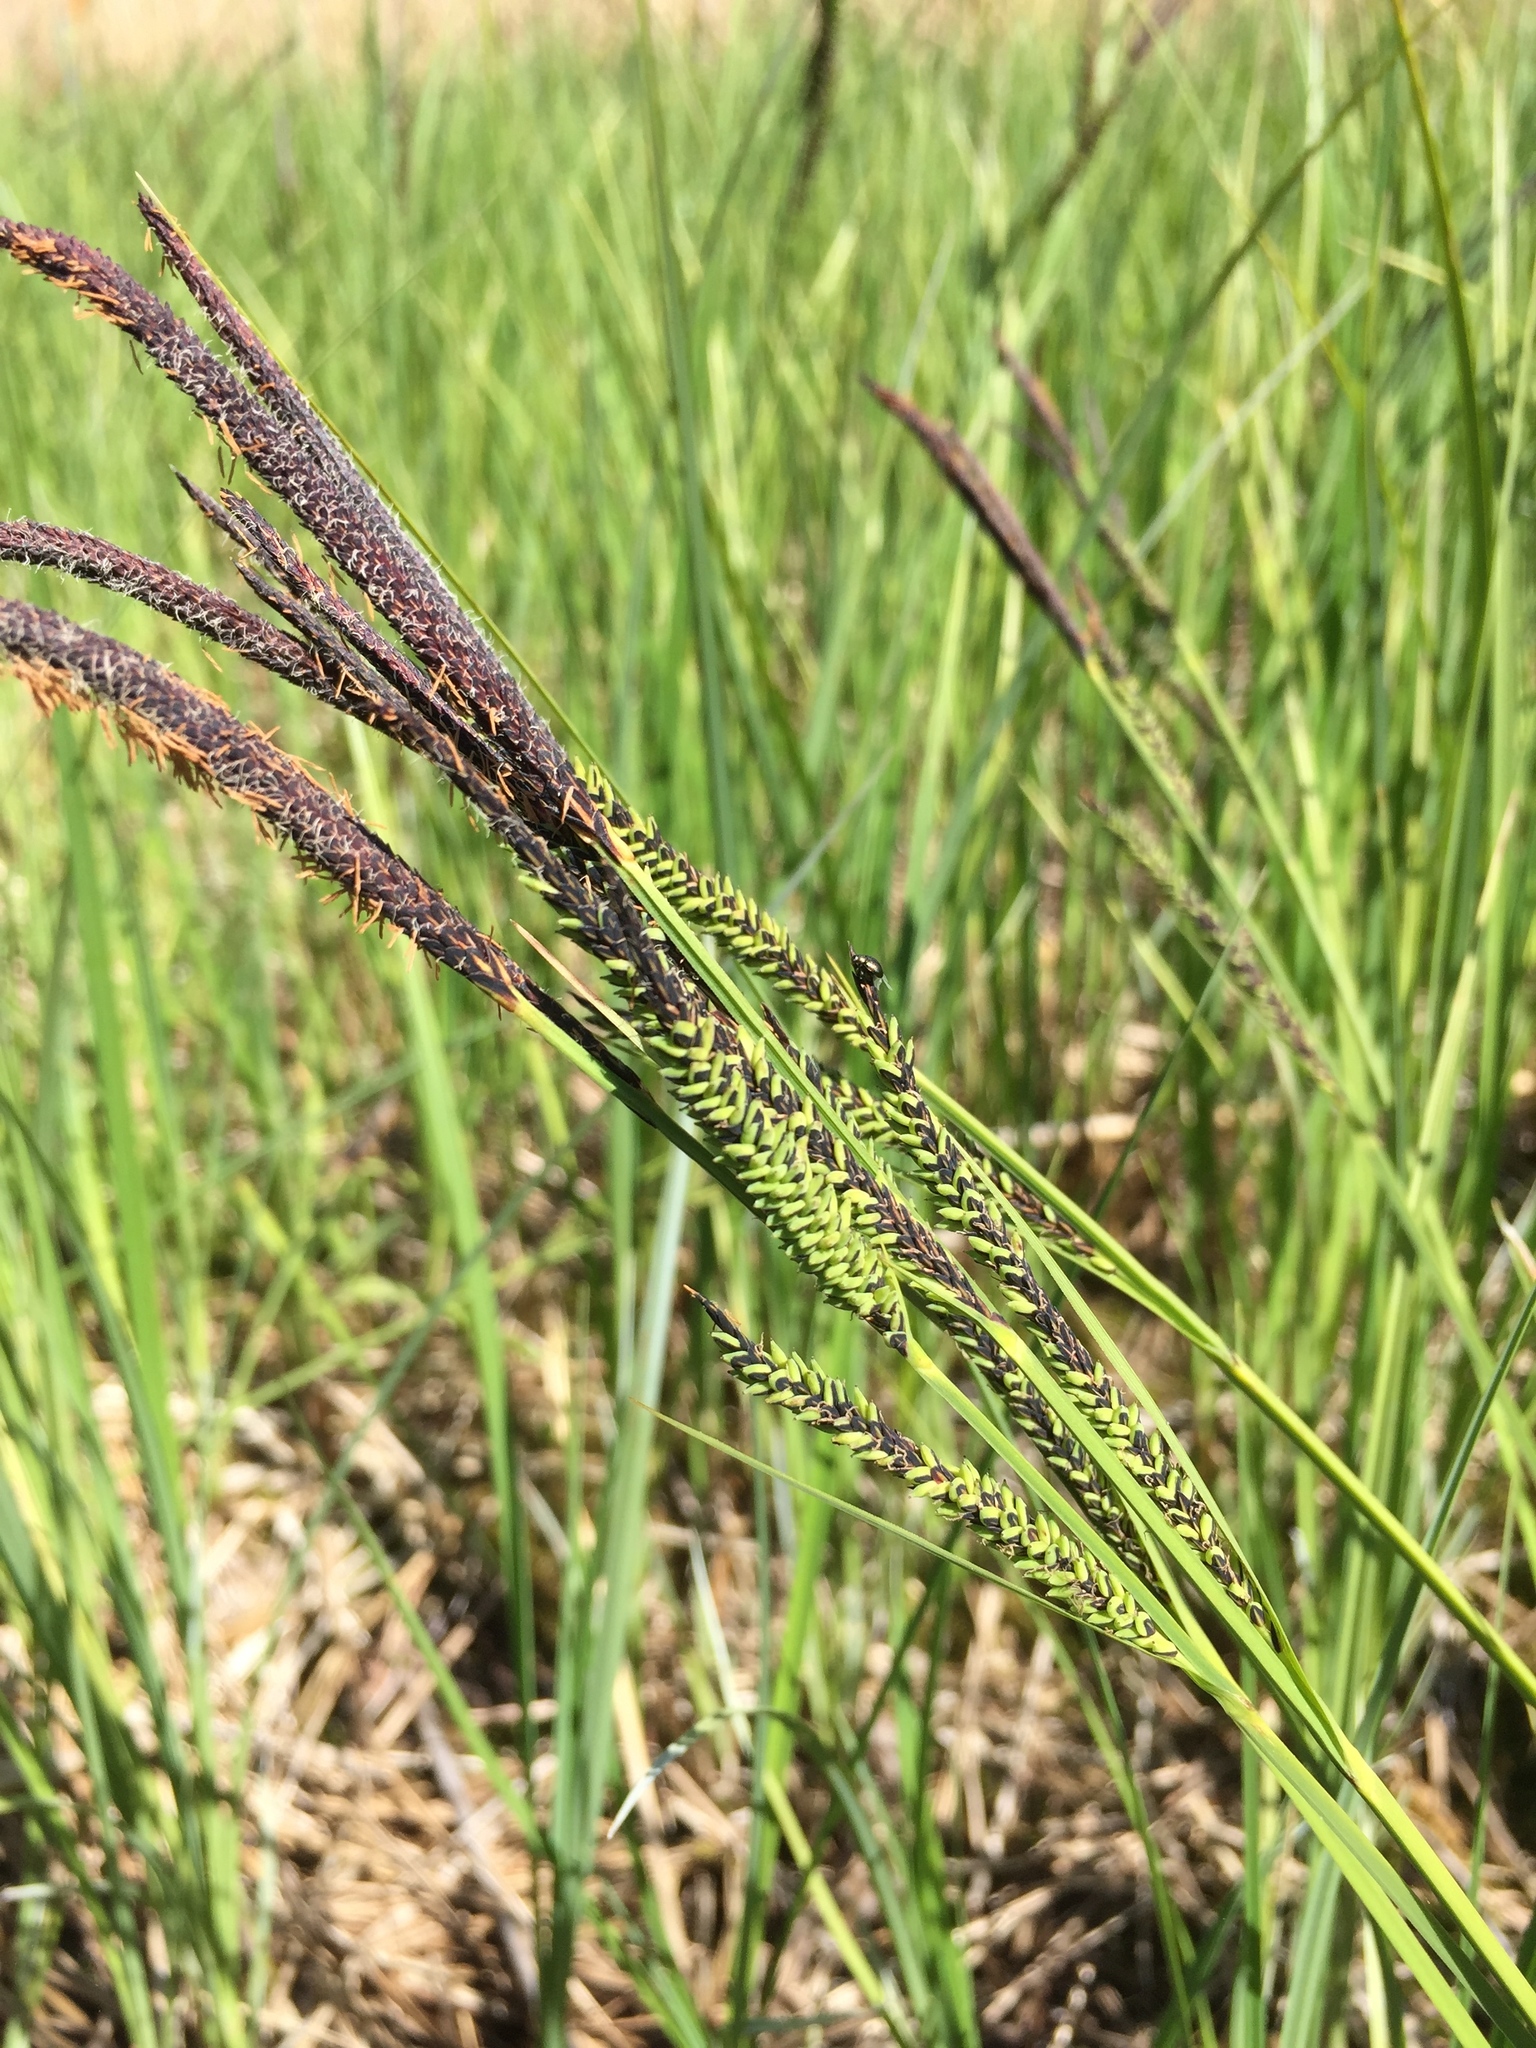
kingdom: Plantae
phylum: Tracheophyta
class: Liliopsida
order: Poales
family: Cyperaceae
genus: Carex
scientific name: Carex nigra
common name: Common sedge
